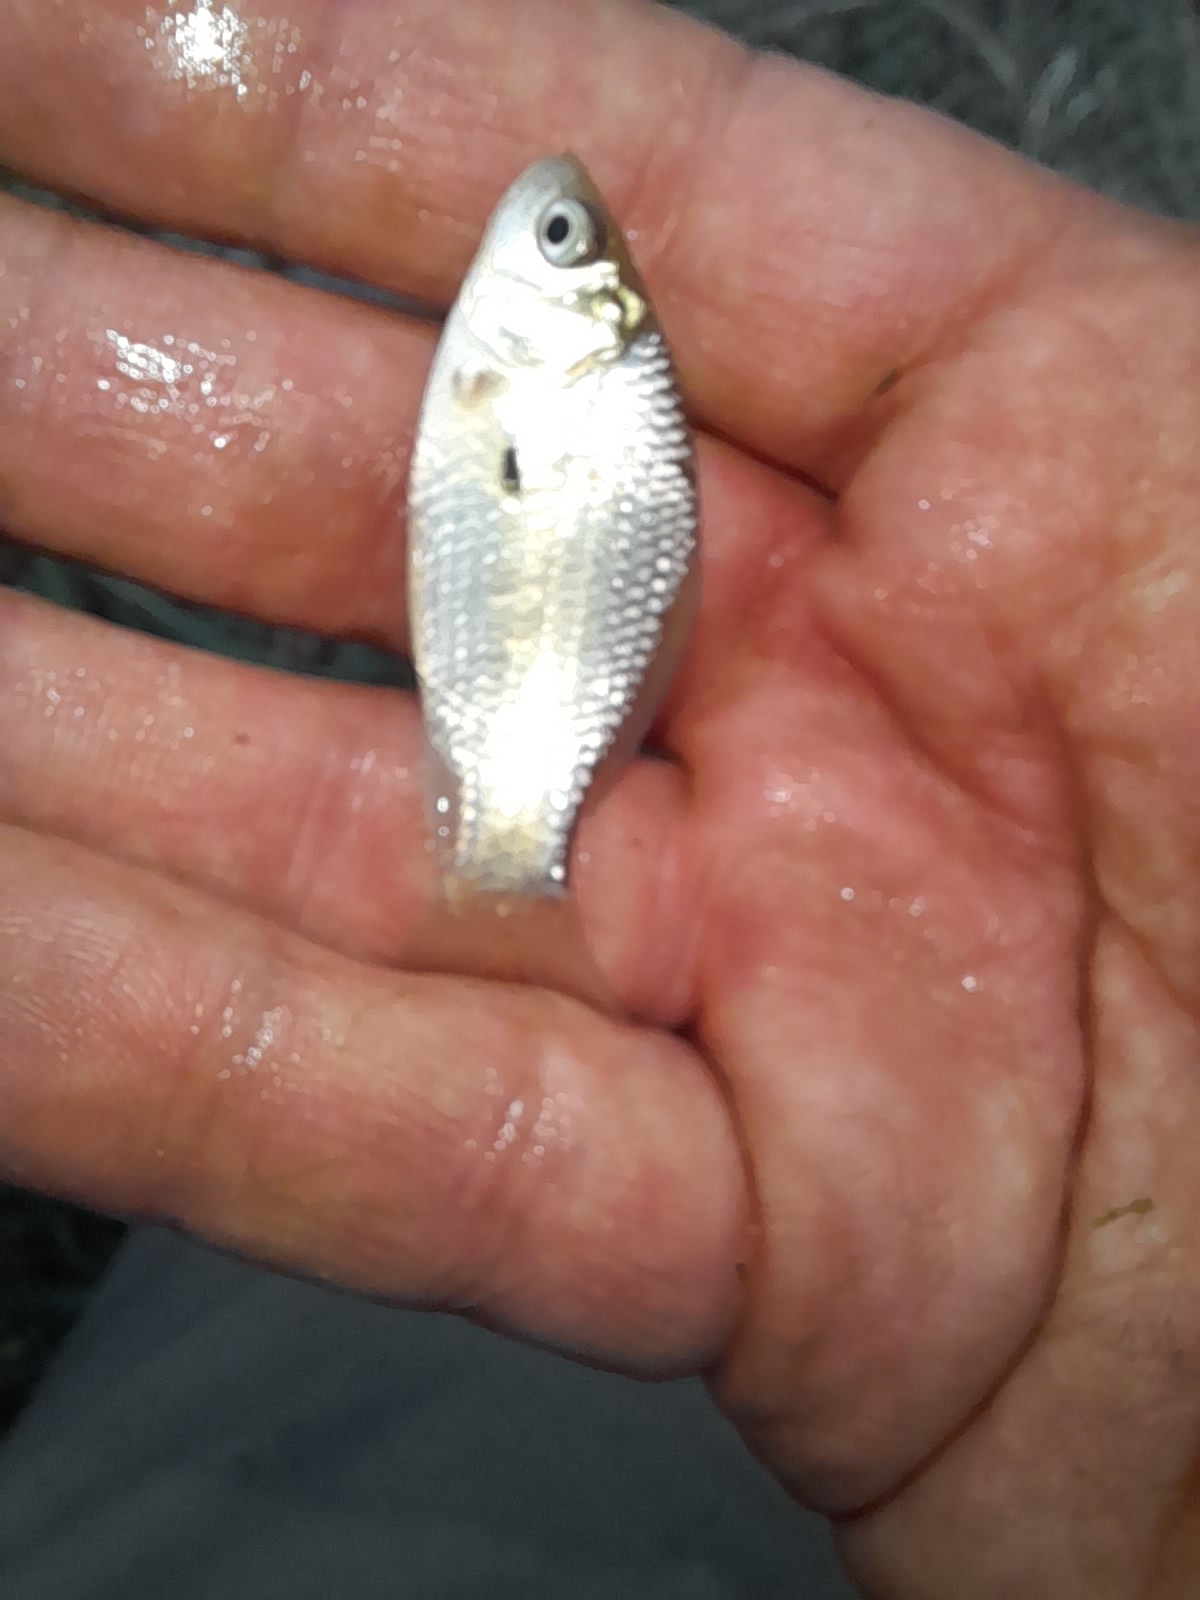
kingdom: Animalia
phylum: Chordata
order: Cypriniformes
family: Cyprinidae
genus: Carassius
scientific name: Carassius gibelio
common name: Prussian carp
